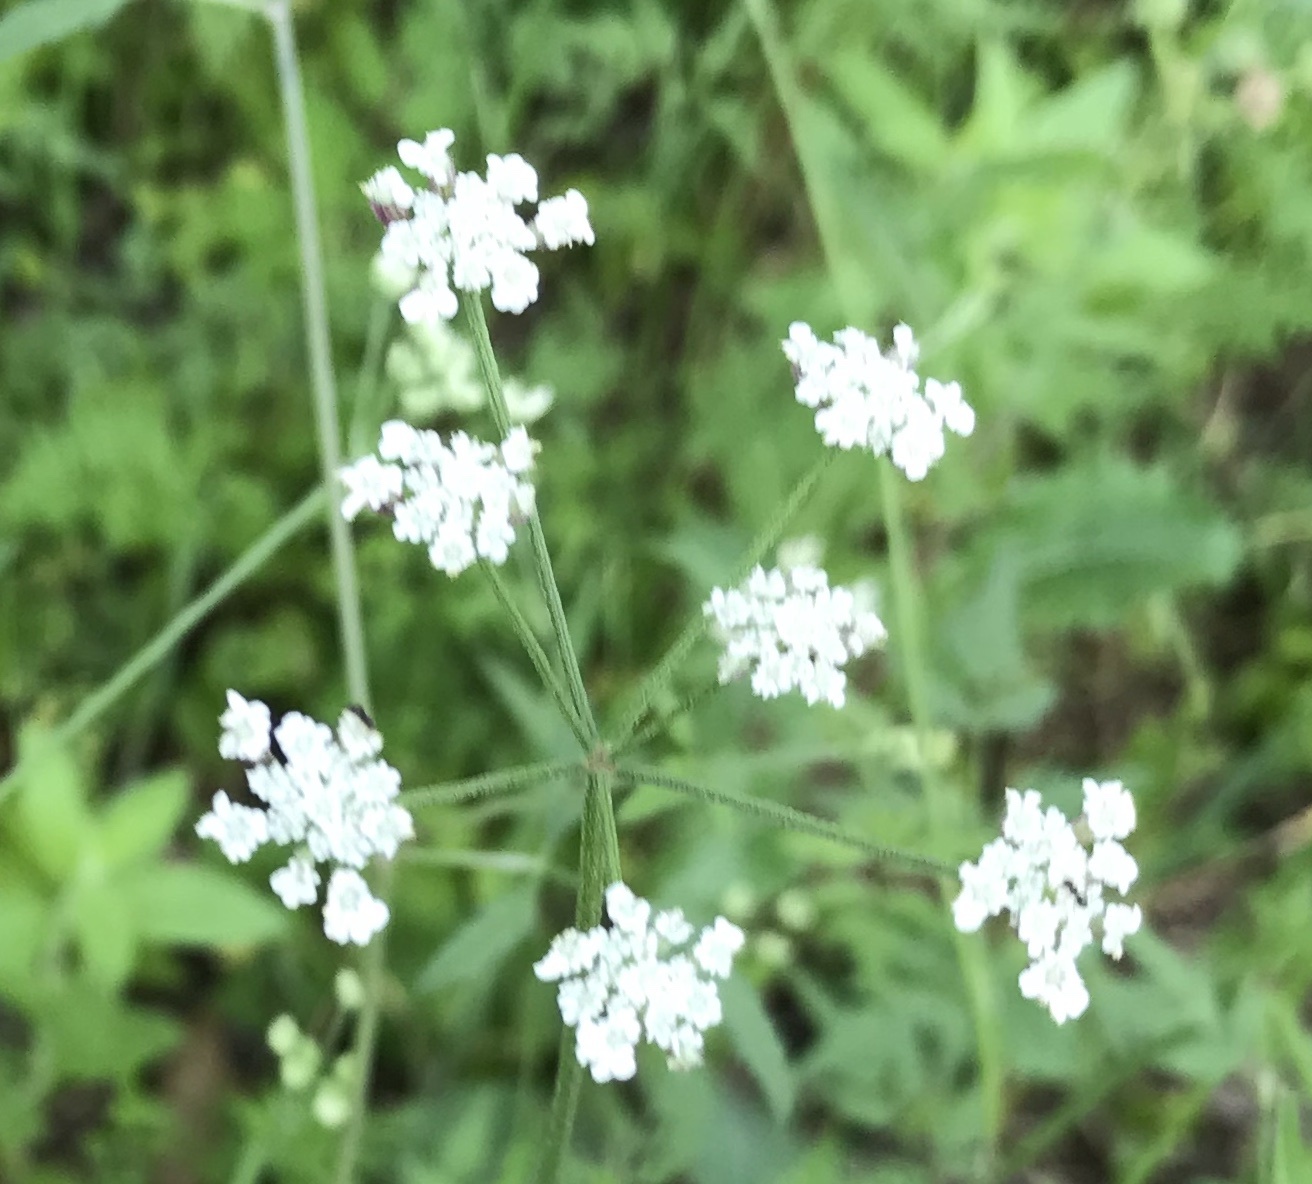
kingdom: Plantae
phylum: Tracheophyta
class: Magnoliopsida
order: Apiales
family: Apiaceae
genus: Torilis
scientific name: Torilis arvensis
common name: Spreading hedge-parsley
